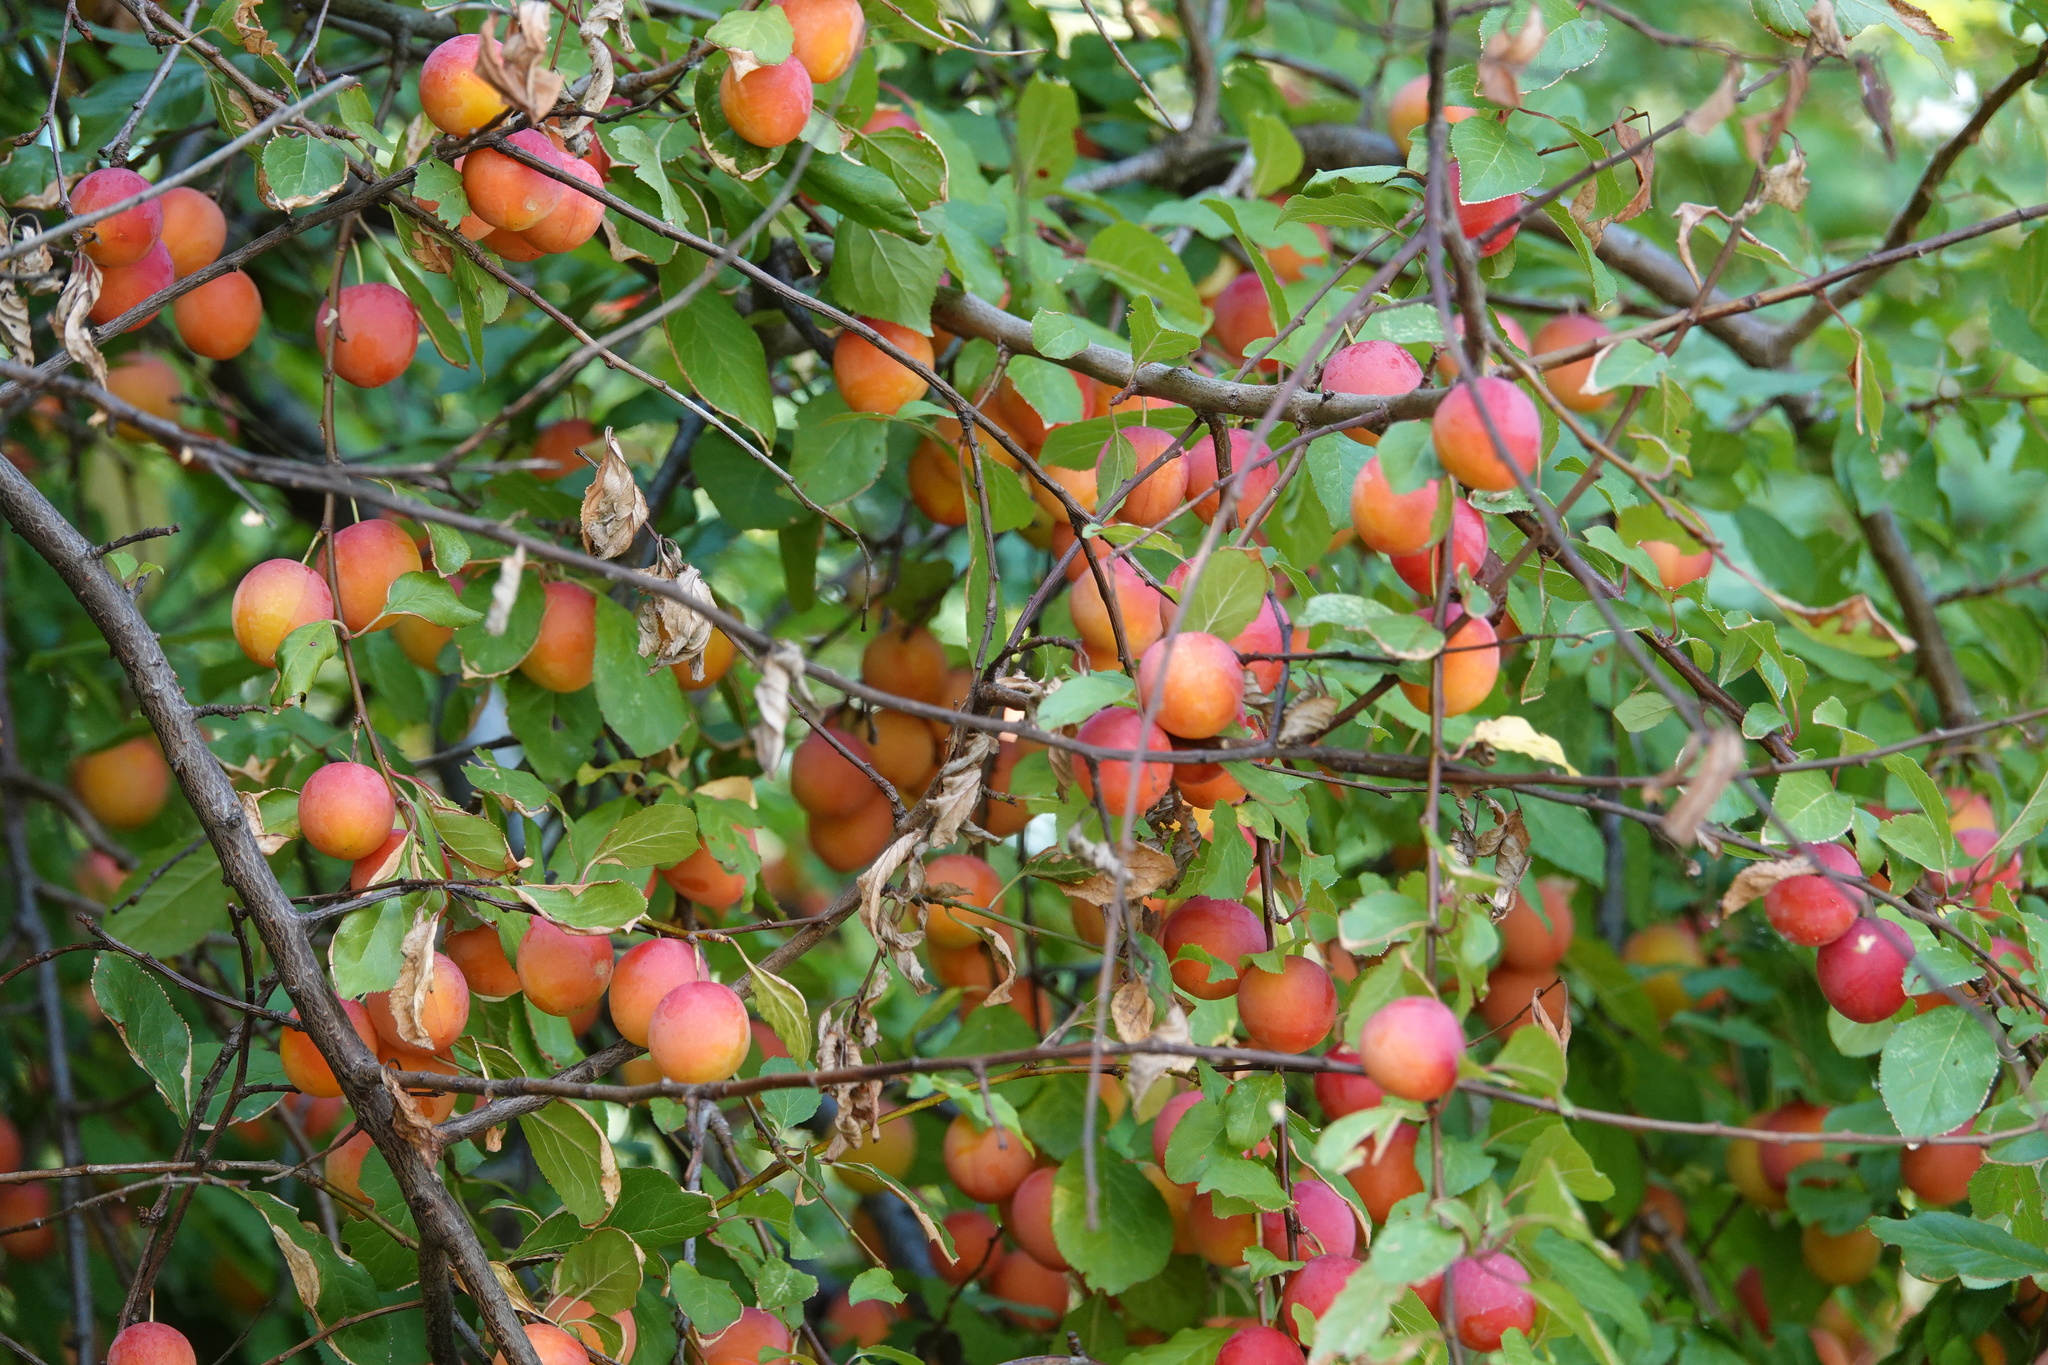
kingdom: Plantae
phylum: Tracheophyta
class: Magnoliopsida
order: Rosales
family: Rosaceae
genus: Prunus
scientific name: Prunus cerasifera
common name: Cherry plum
